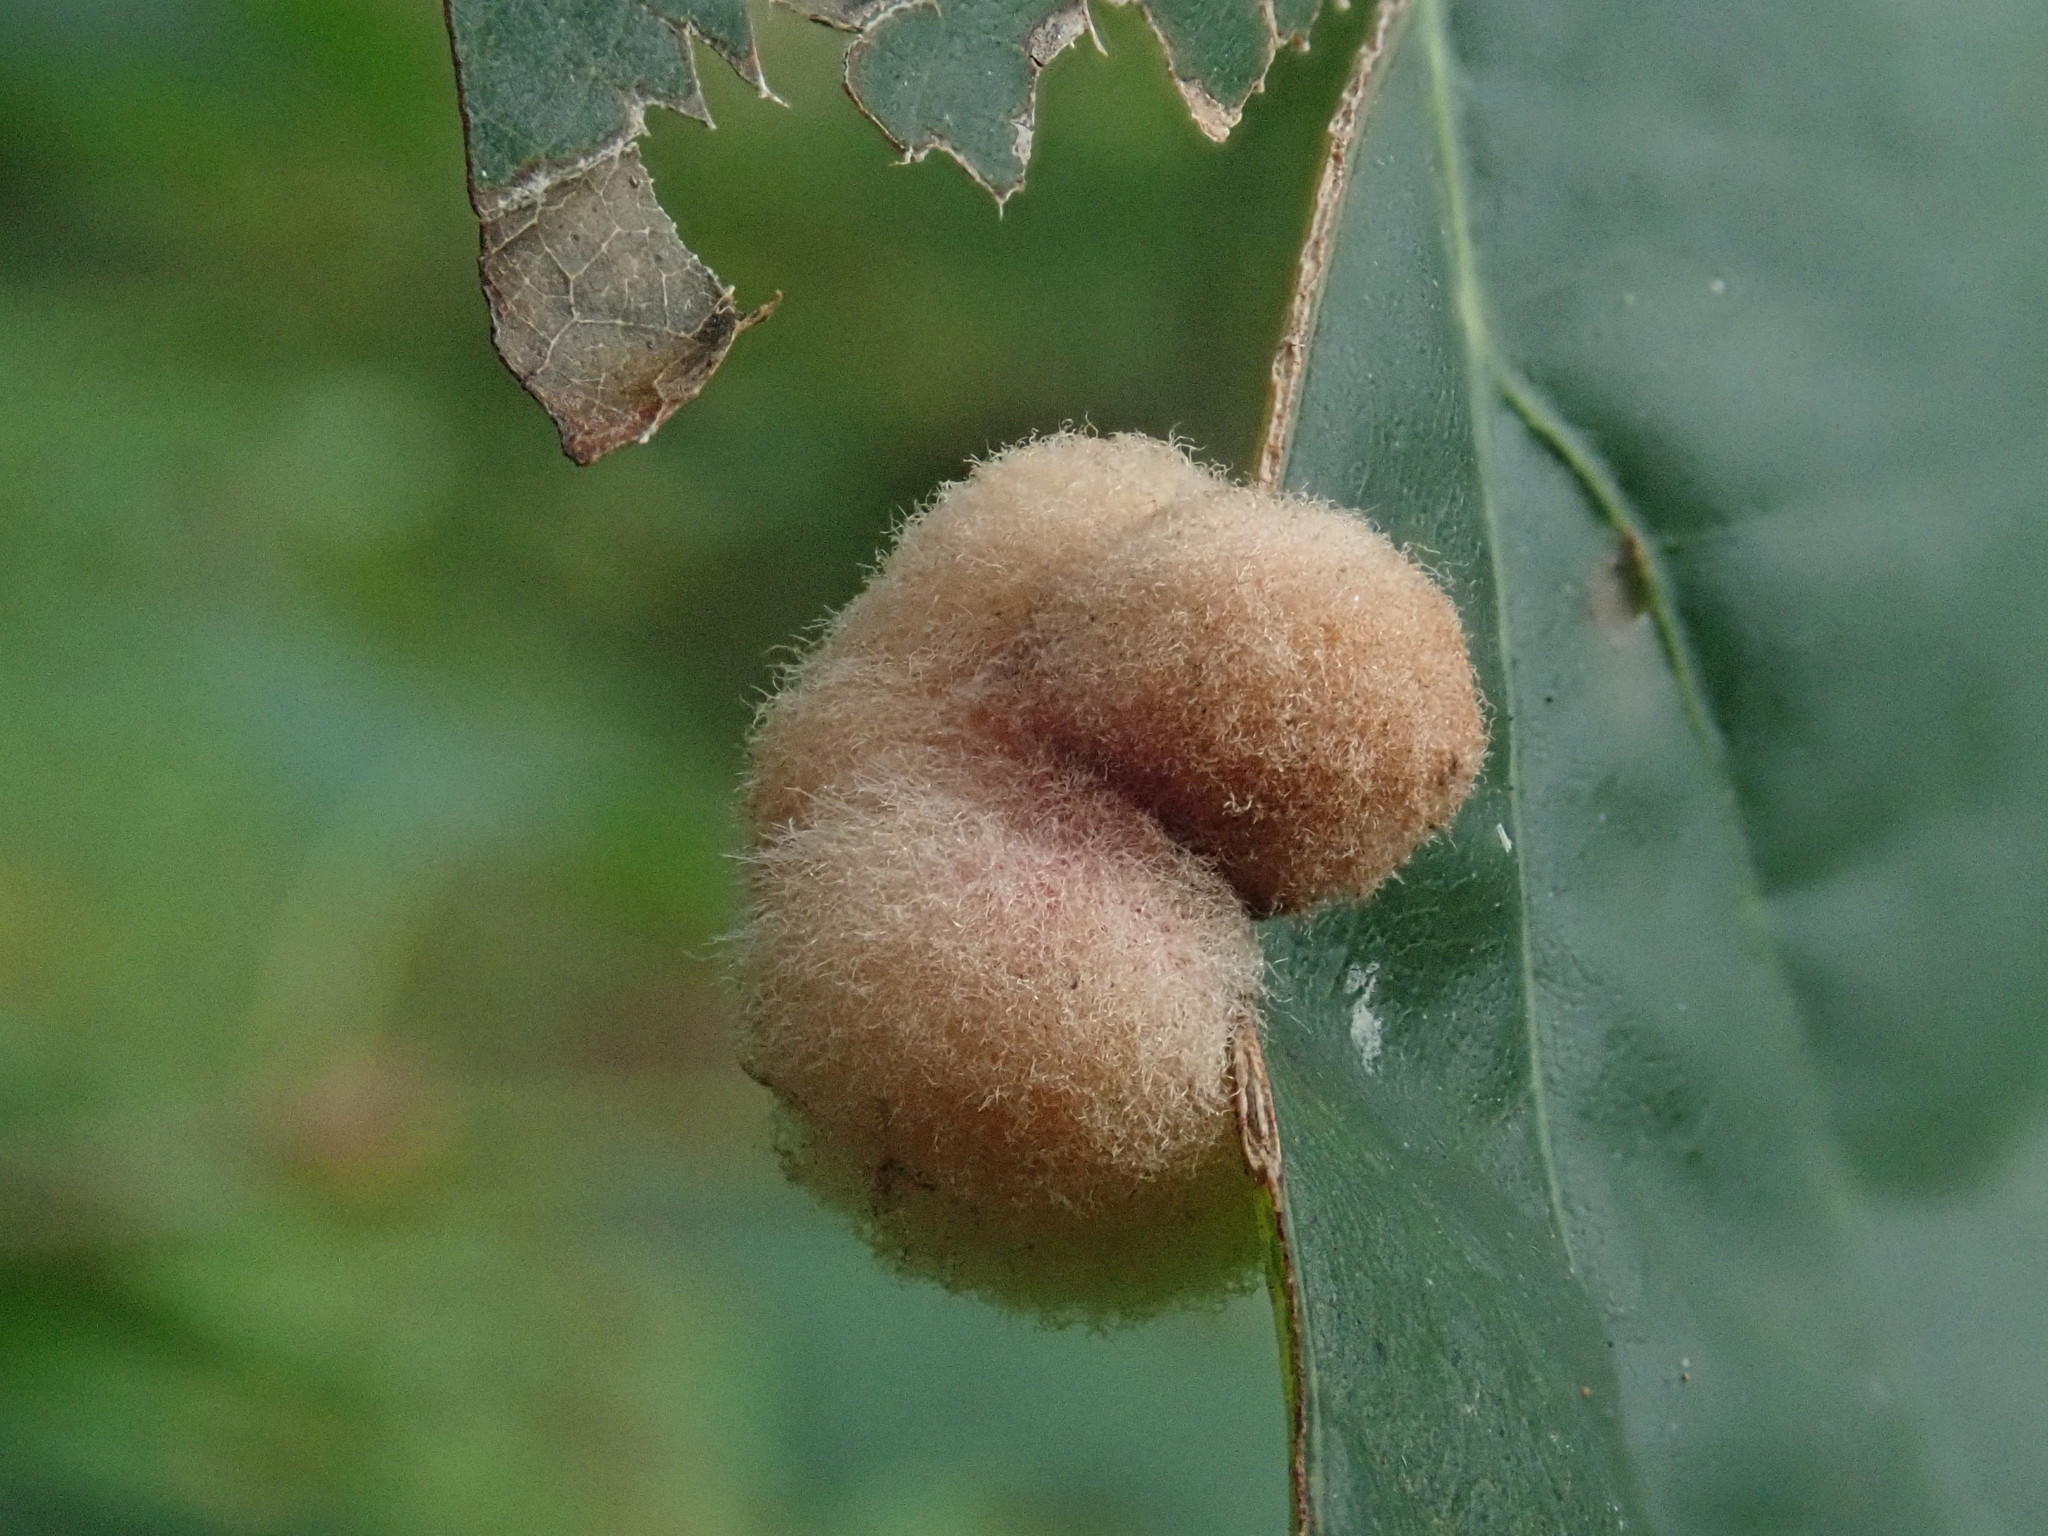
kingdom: Animalia
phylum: Arthropoda
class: Insecta
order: Hymenoptera
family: Cynipidae
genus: Callirhytis
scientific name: Callirhytis
